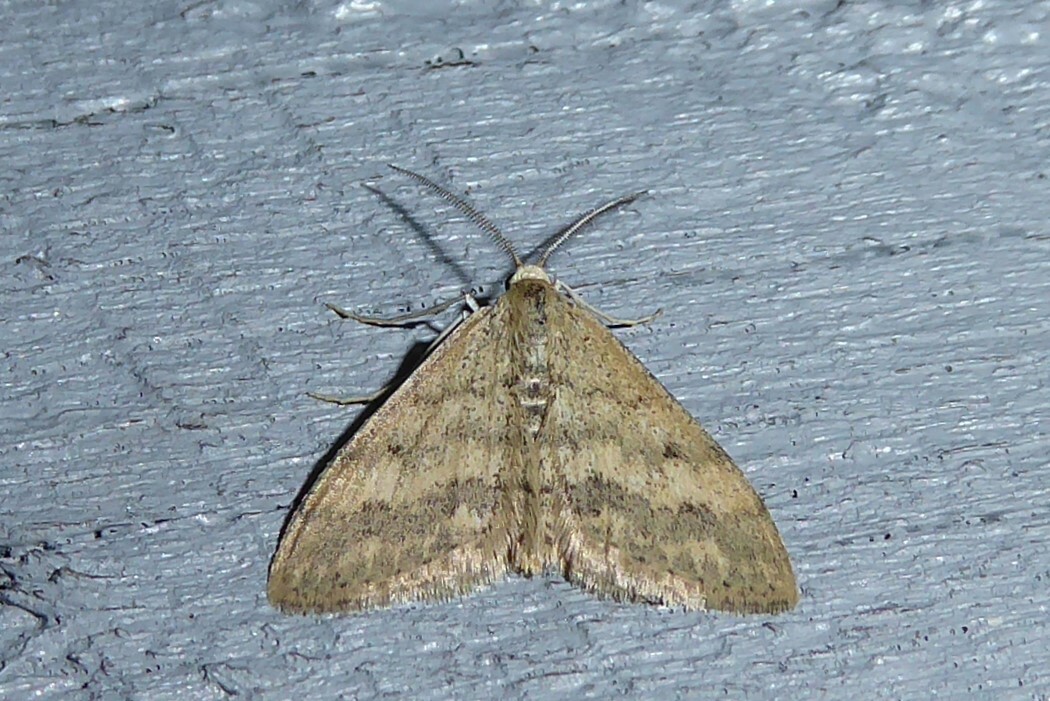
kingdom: Animalia
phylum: Arthropoda
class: Insecta
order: Lepidoptera
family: Geometridae
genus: Scopula
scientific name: Scopula rubraria
